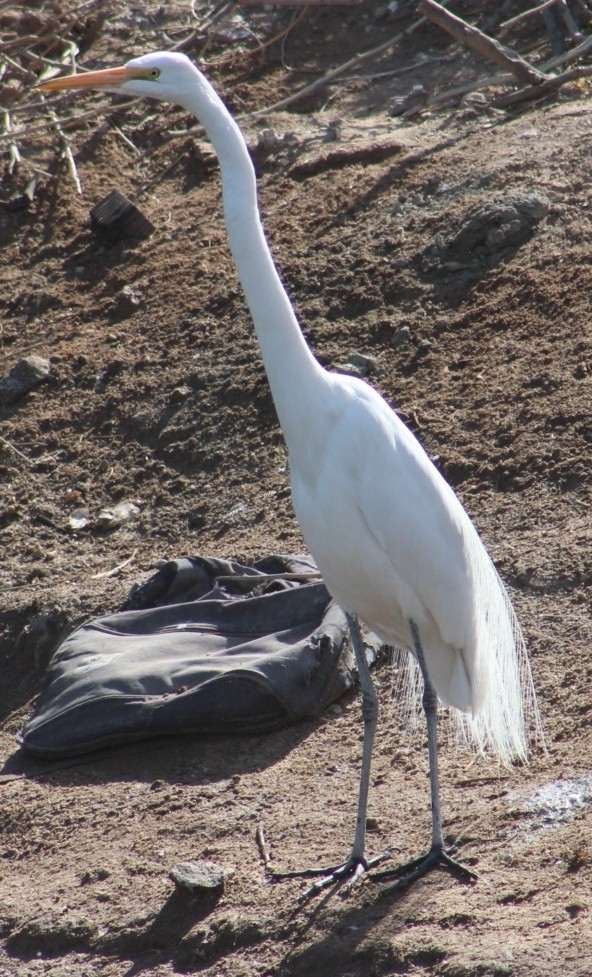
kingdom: Animalia
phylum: Chordata
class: Aves
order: Pelecaniformes
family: Ardeidae
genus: Ardea
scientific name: Ardea alba
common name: Great egret
